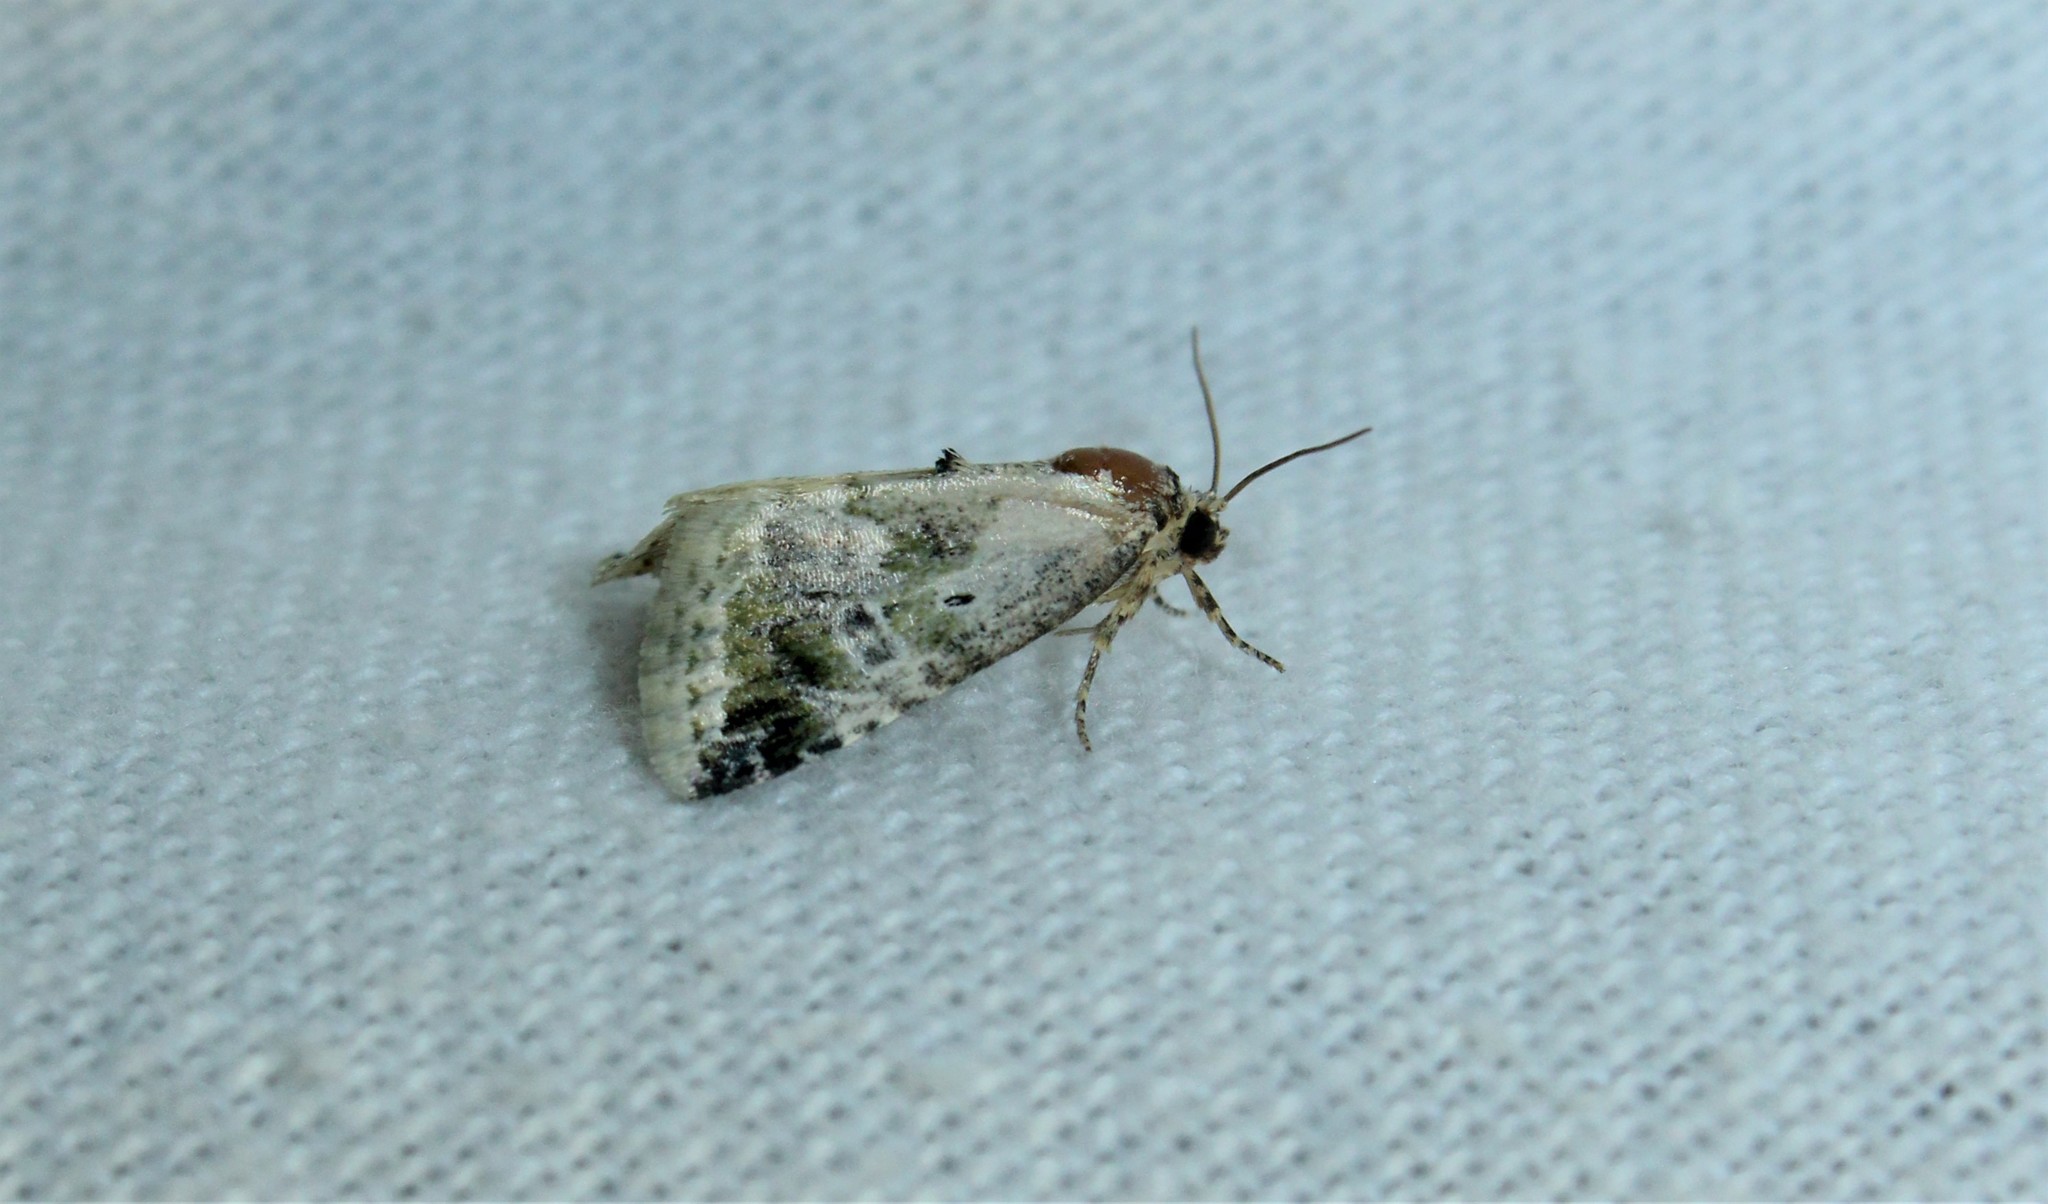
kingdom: Animalia
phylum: Arthropoda
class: Insecta
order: Lepidoptera
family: Noctuidae
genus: Maliattha
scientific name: Maliattha synochitis
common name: Black-dotted glyph
